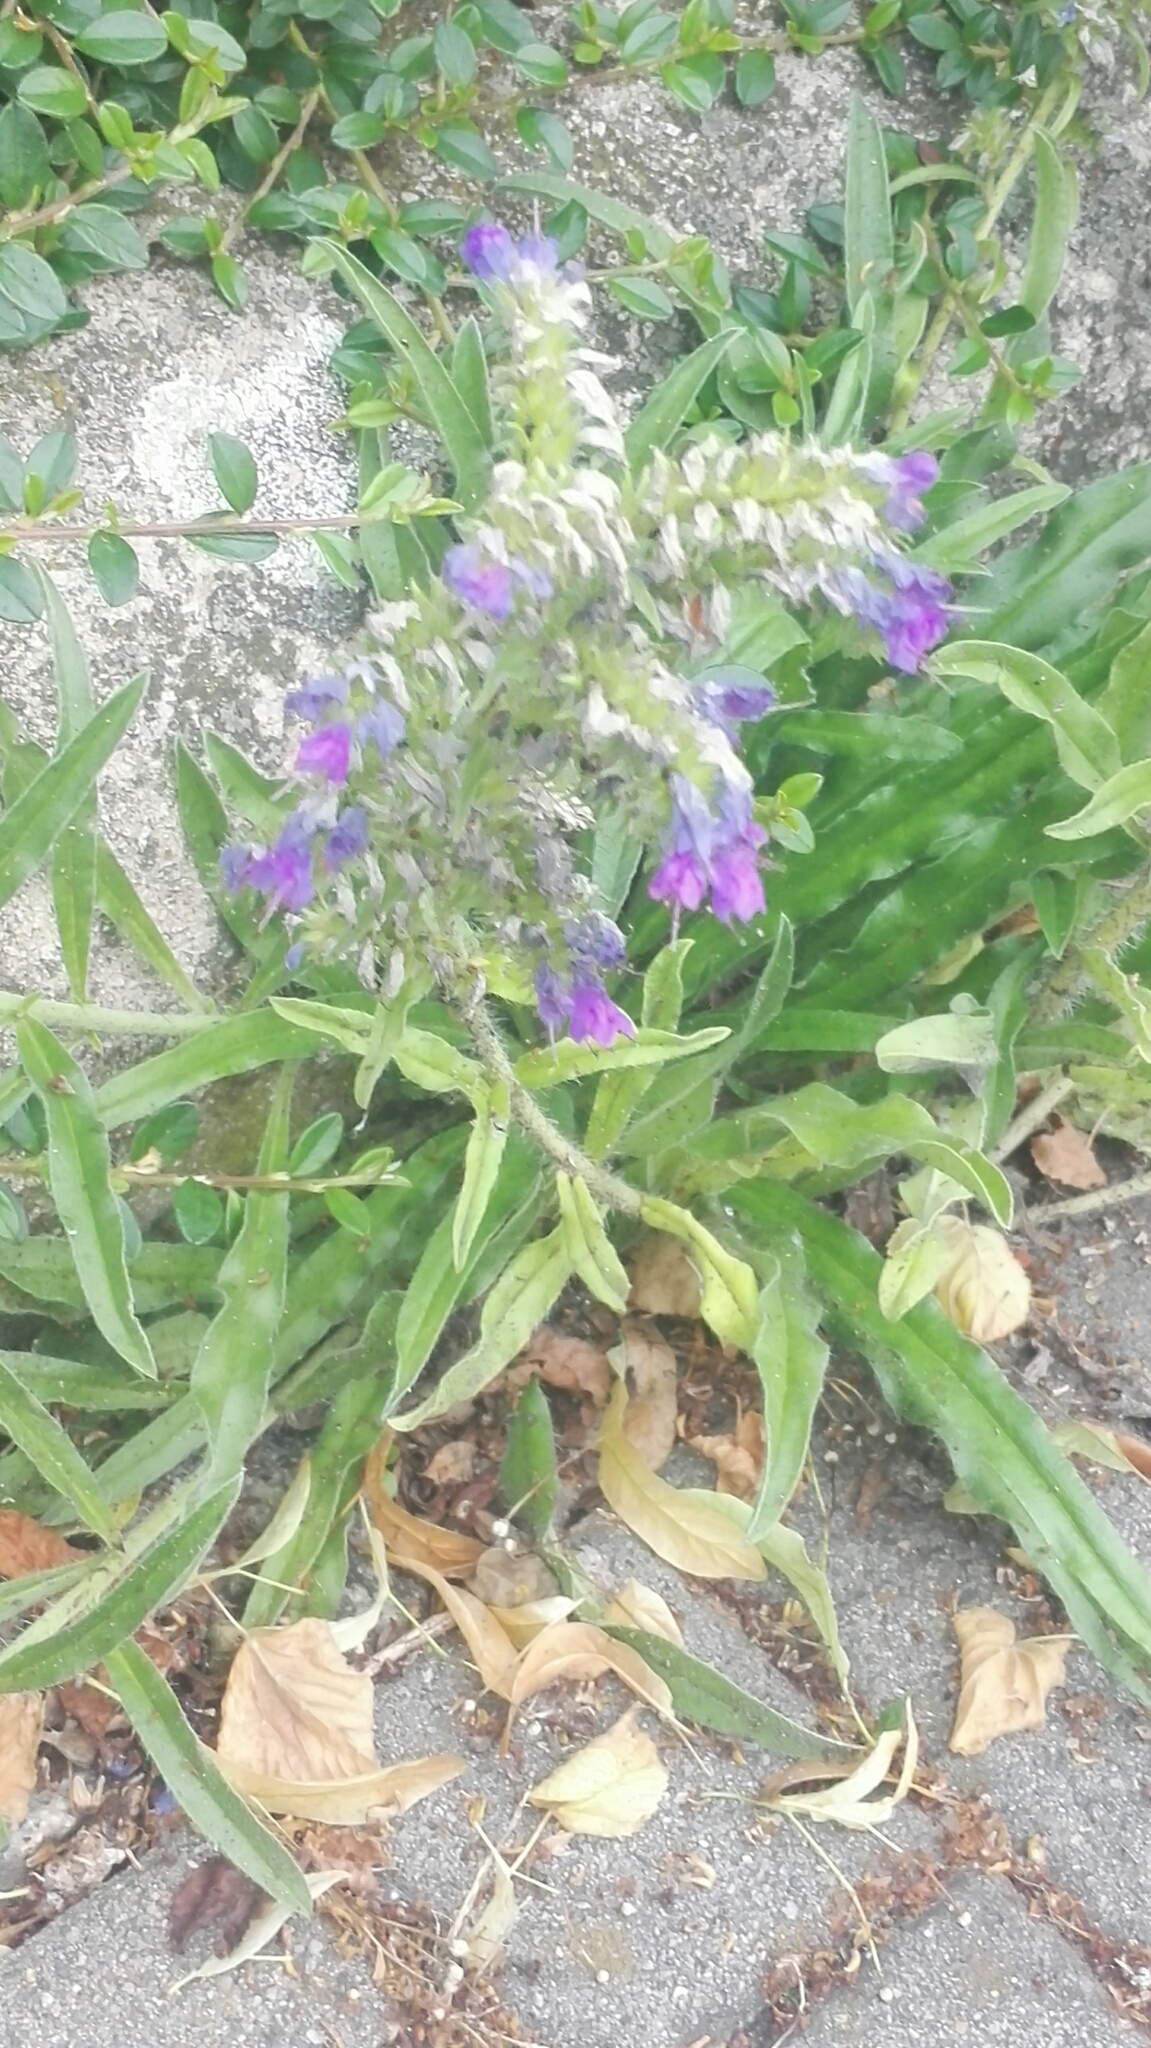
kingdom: Plantae
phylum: Tracheophyta
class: Magnoliopsida
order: Boraginales
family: Boraginaceae
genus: Echium
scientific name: Echium vulgare
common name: Common viper's bugloss
